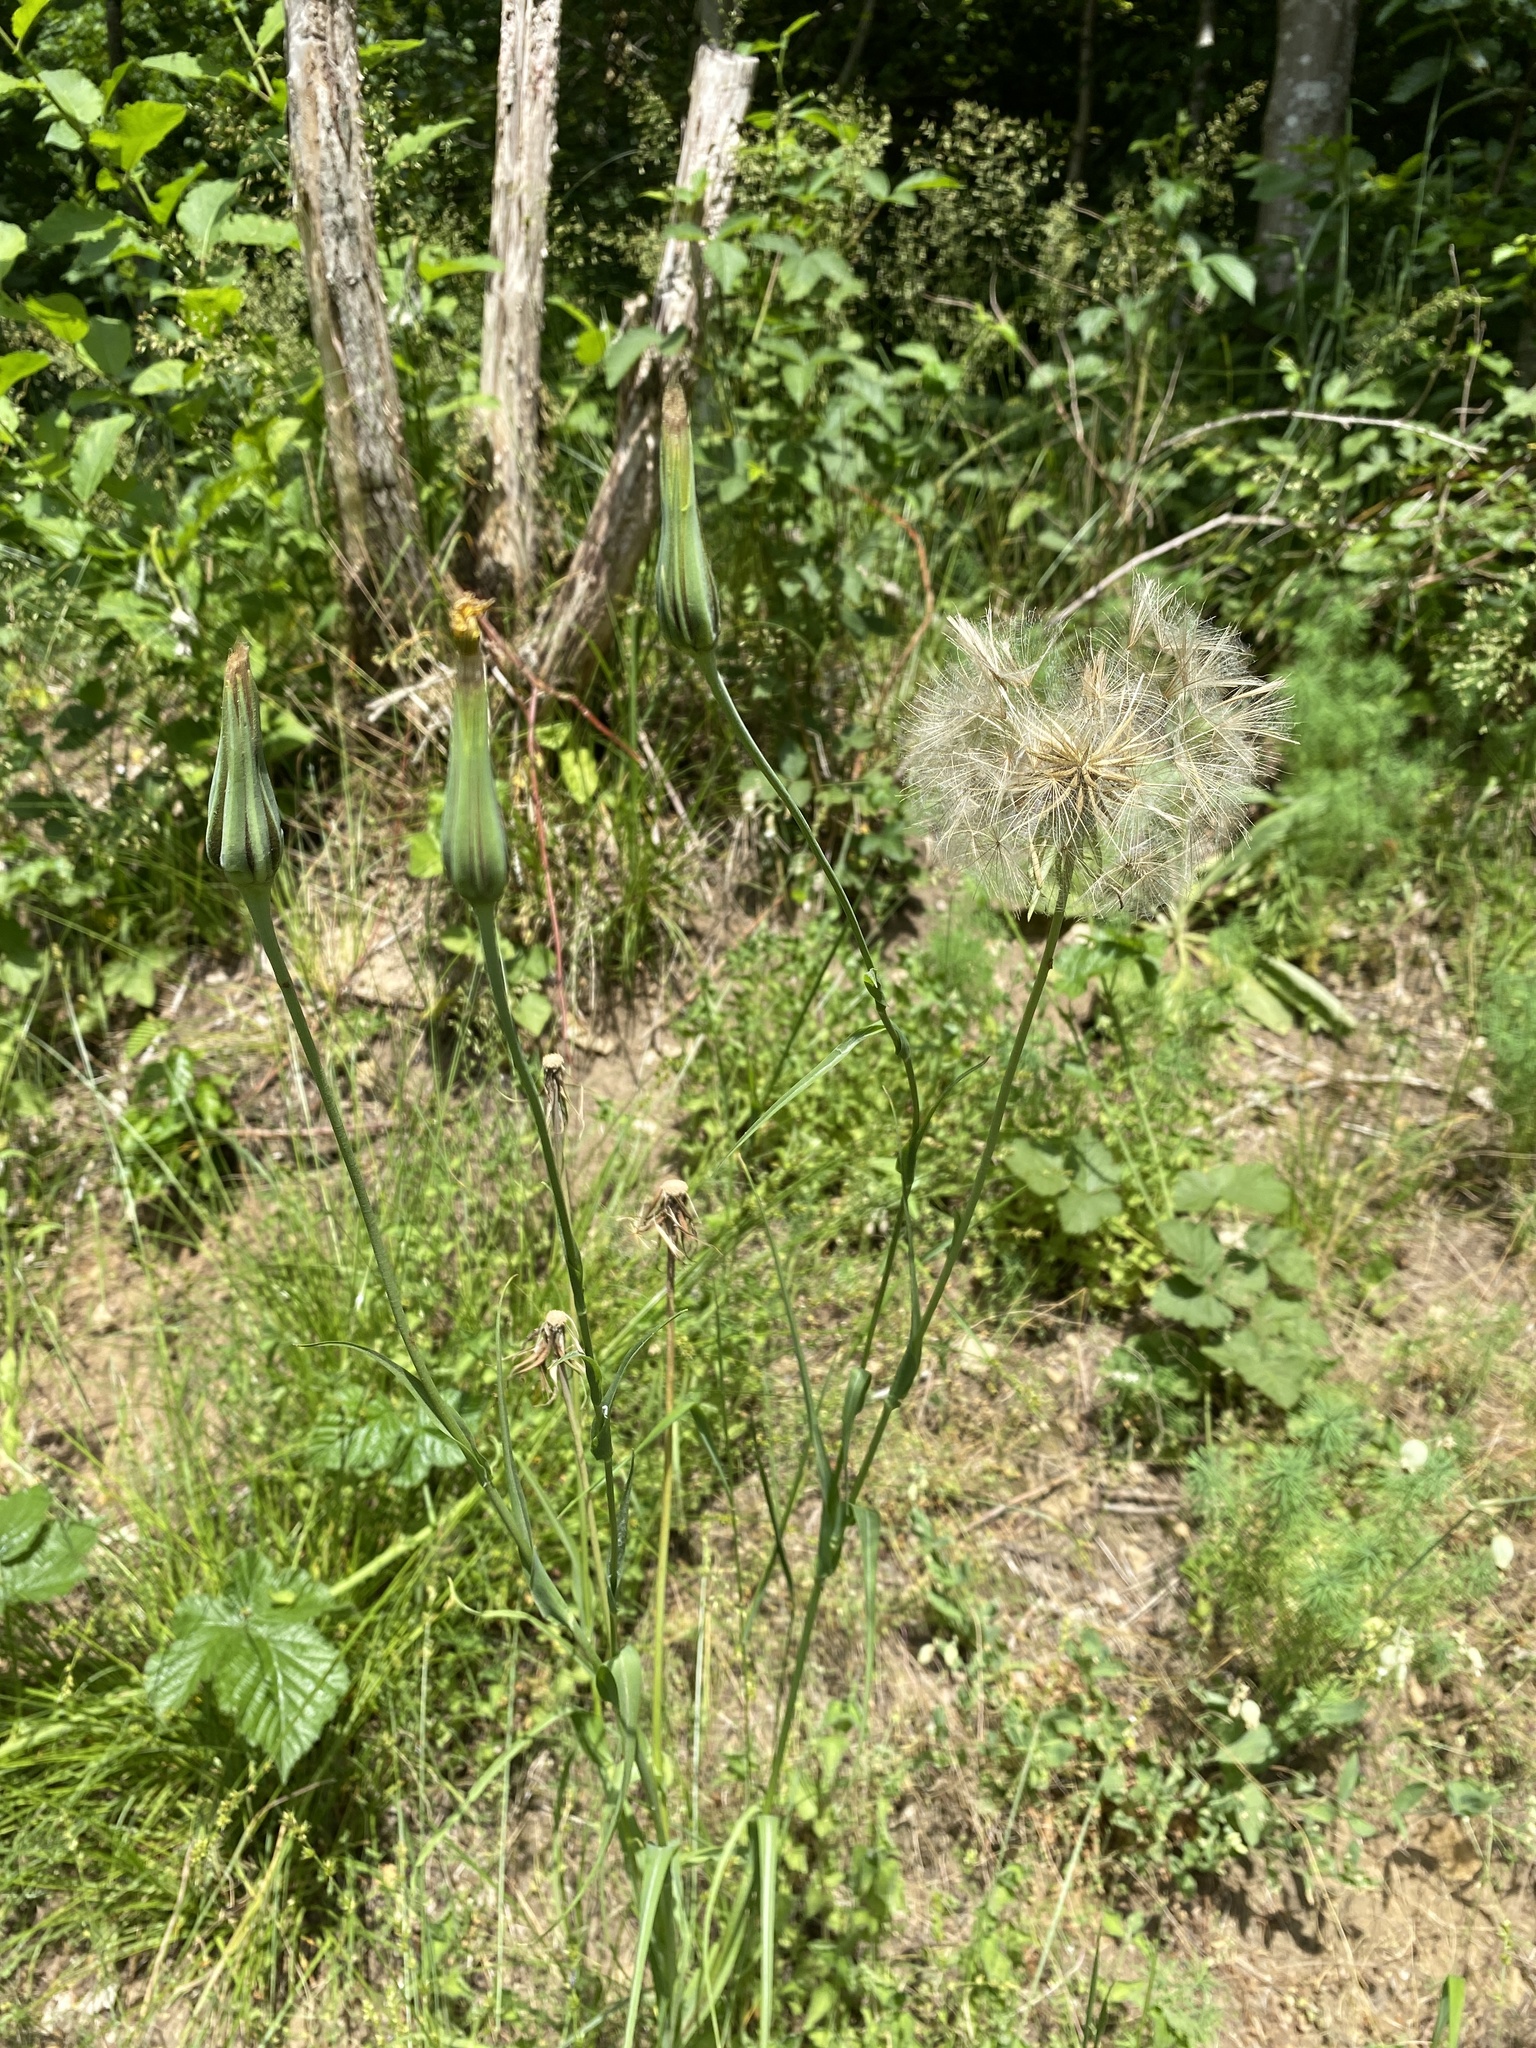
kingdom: Plantae
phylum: Tracheophyta
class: Magnoliopsida
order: Asterales
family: Asteraceae
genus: Tragopogon
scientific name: Tragopogon pratensis
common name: Goat's-beard
